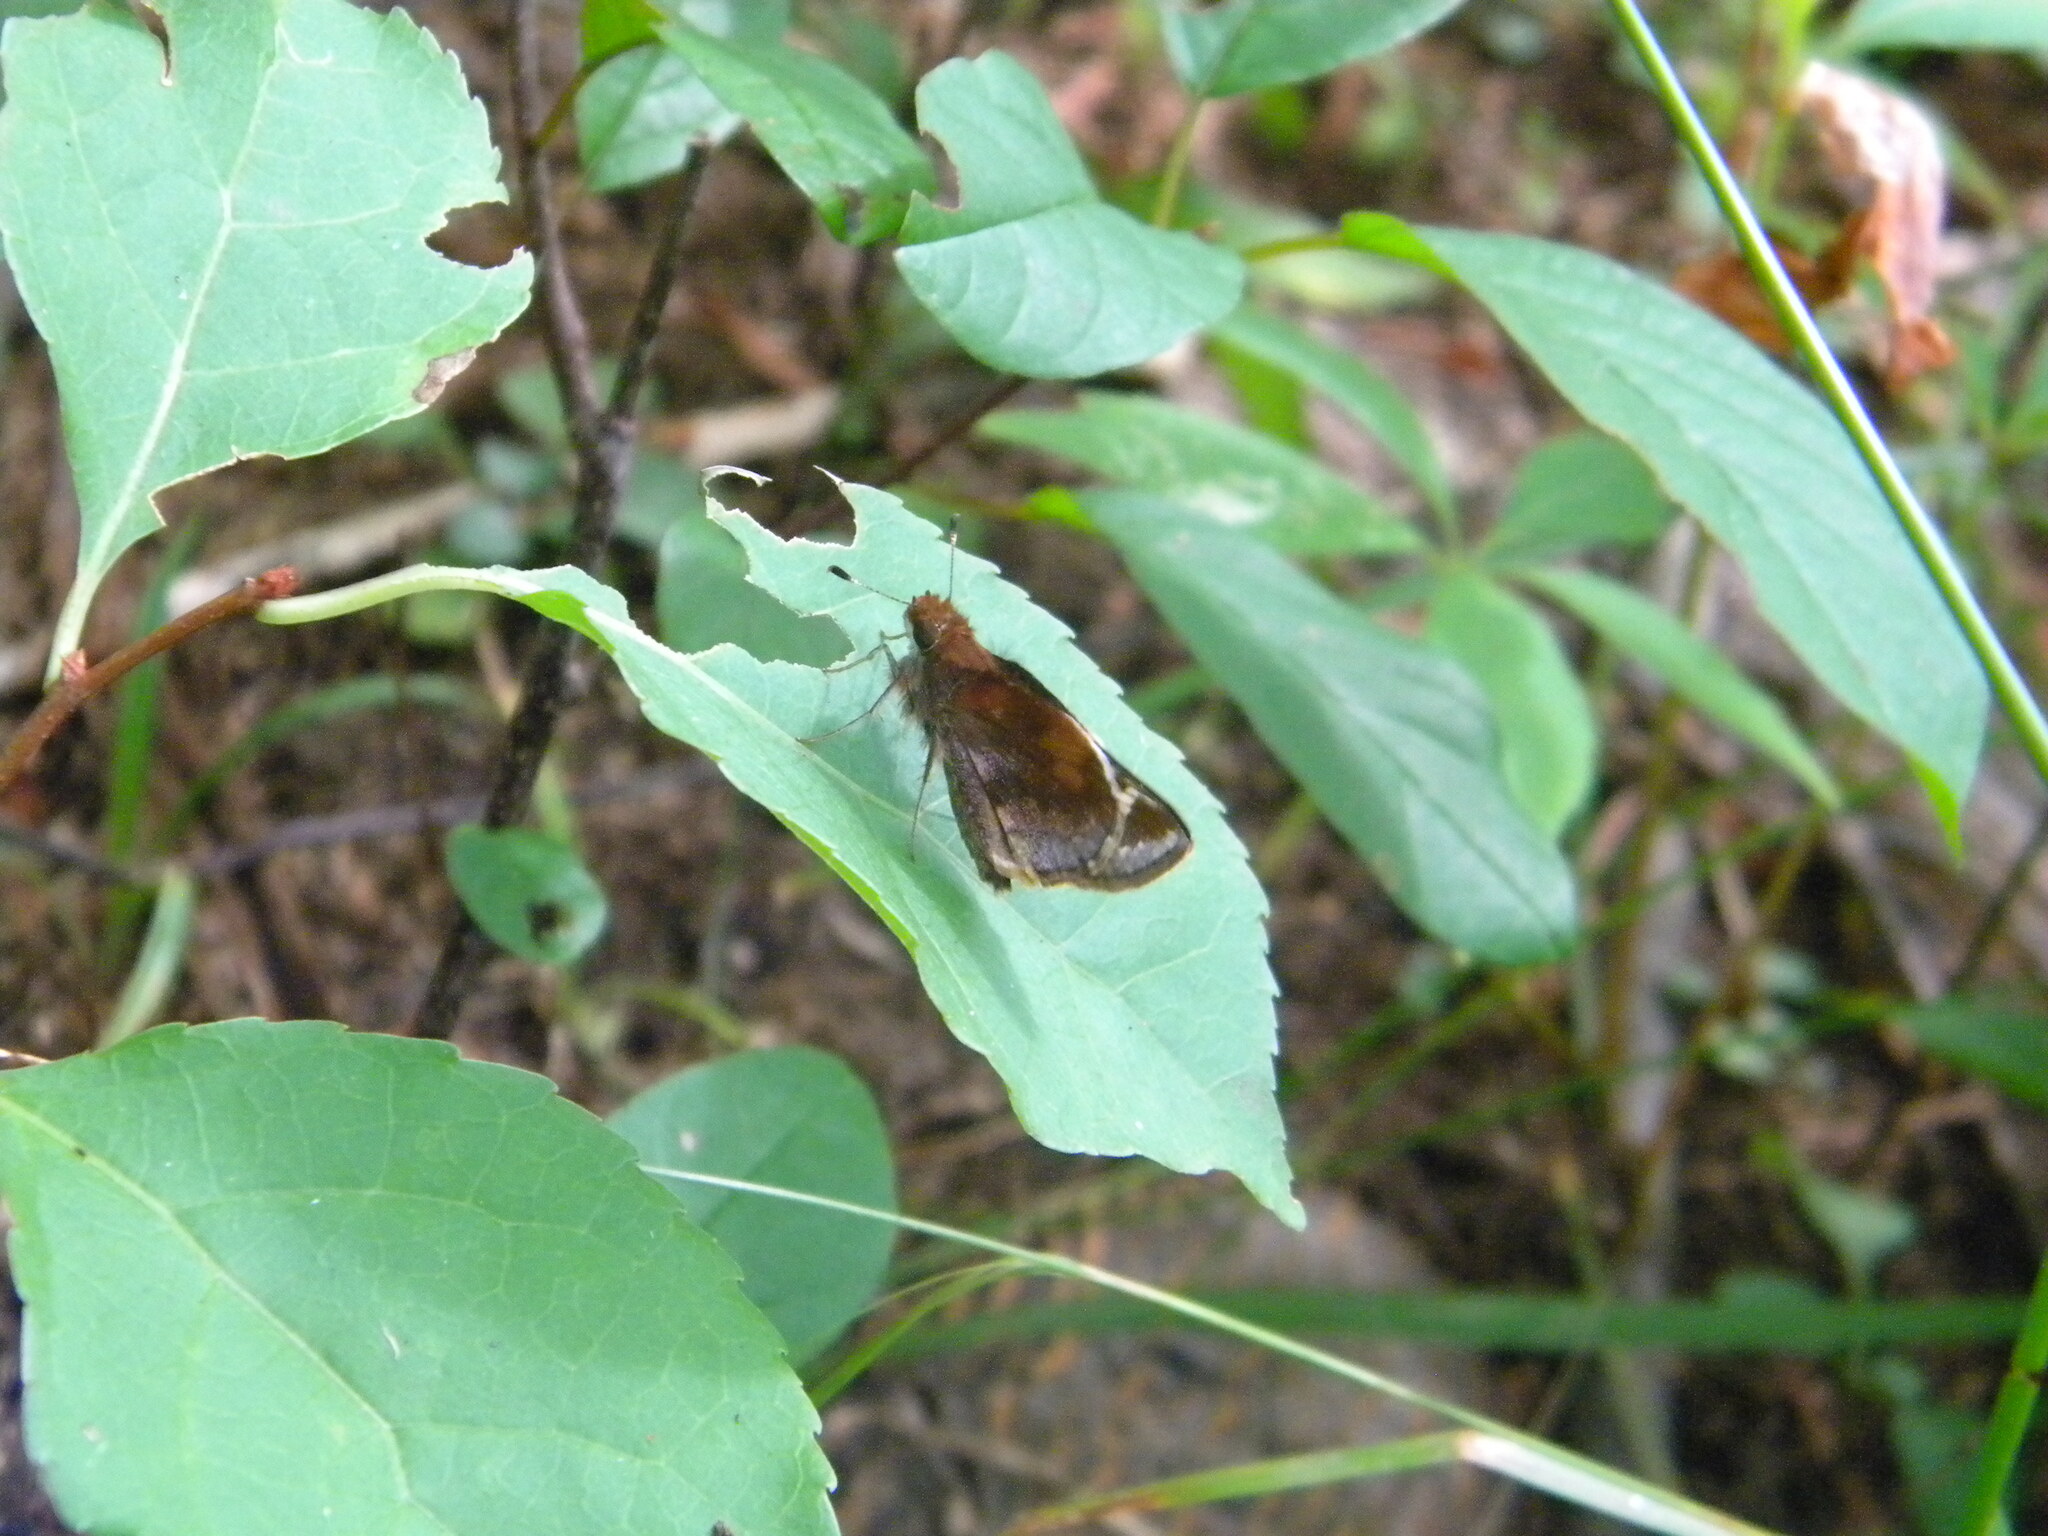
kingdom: Animalia
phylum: Arthropoda
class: Insecta
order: Lepidoptera
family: Hesperiidae
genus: Lon
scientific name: Lon zabulon
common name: Zabulon skipper
